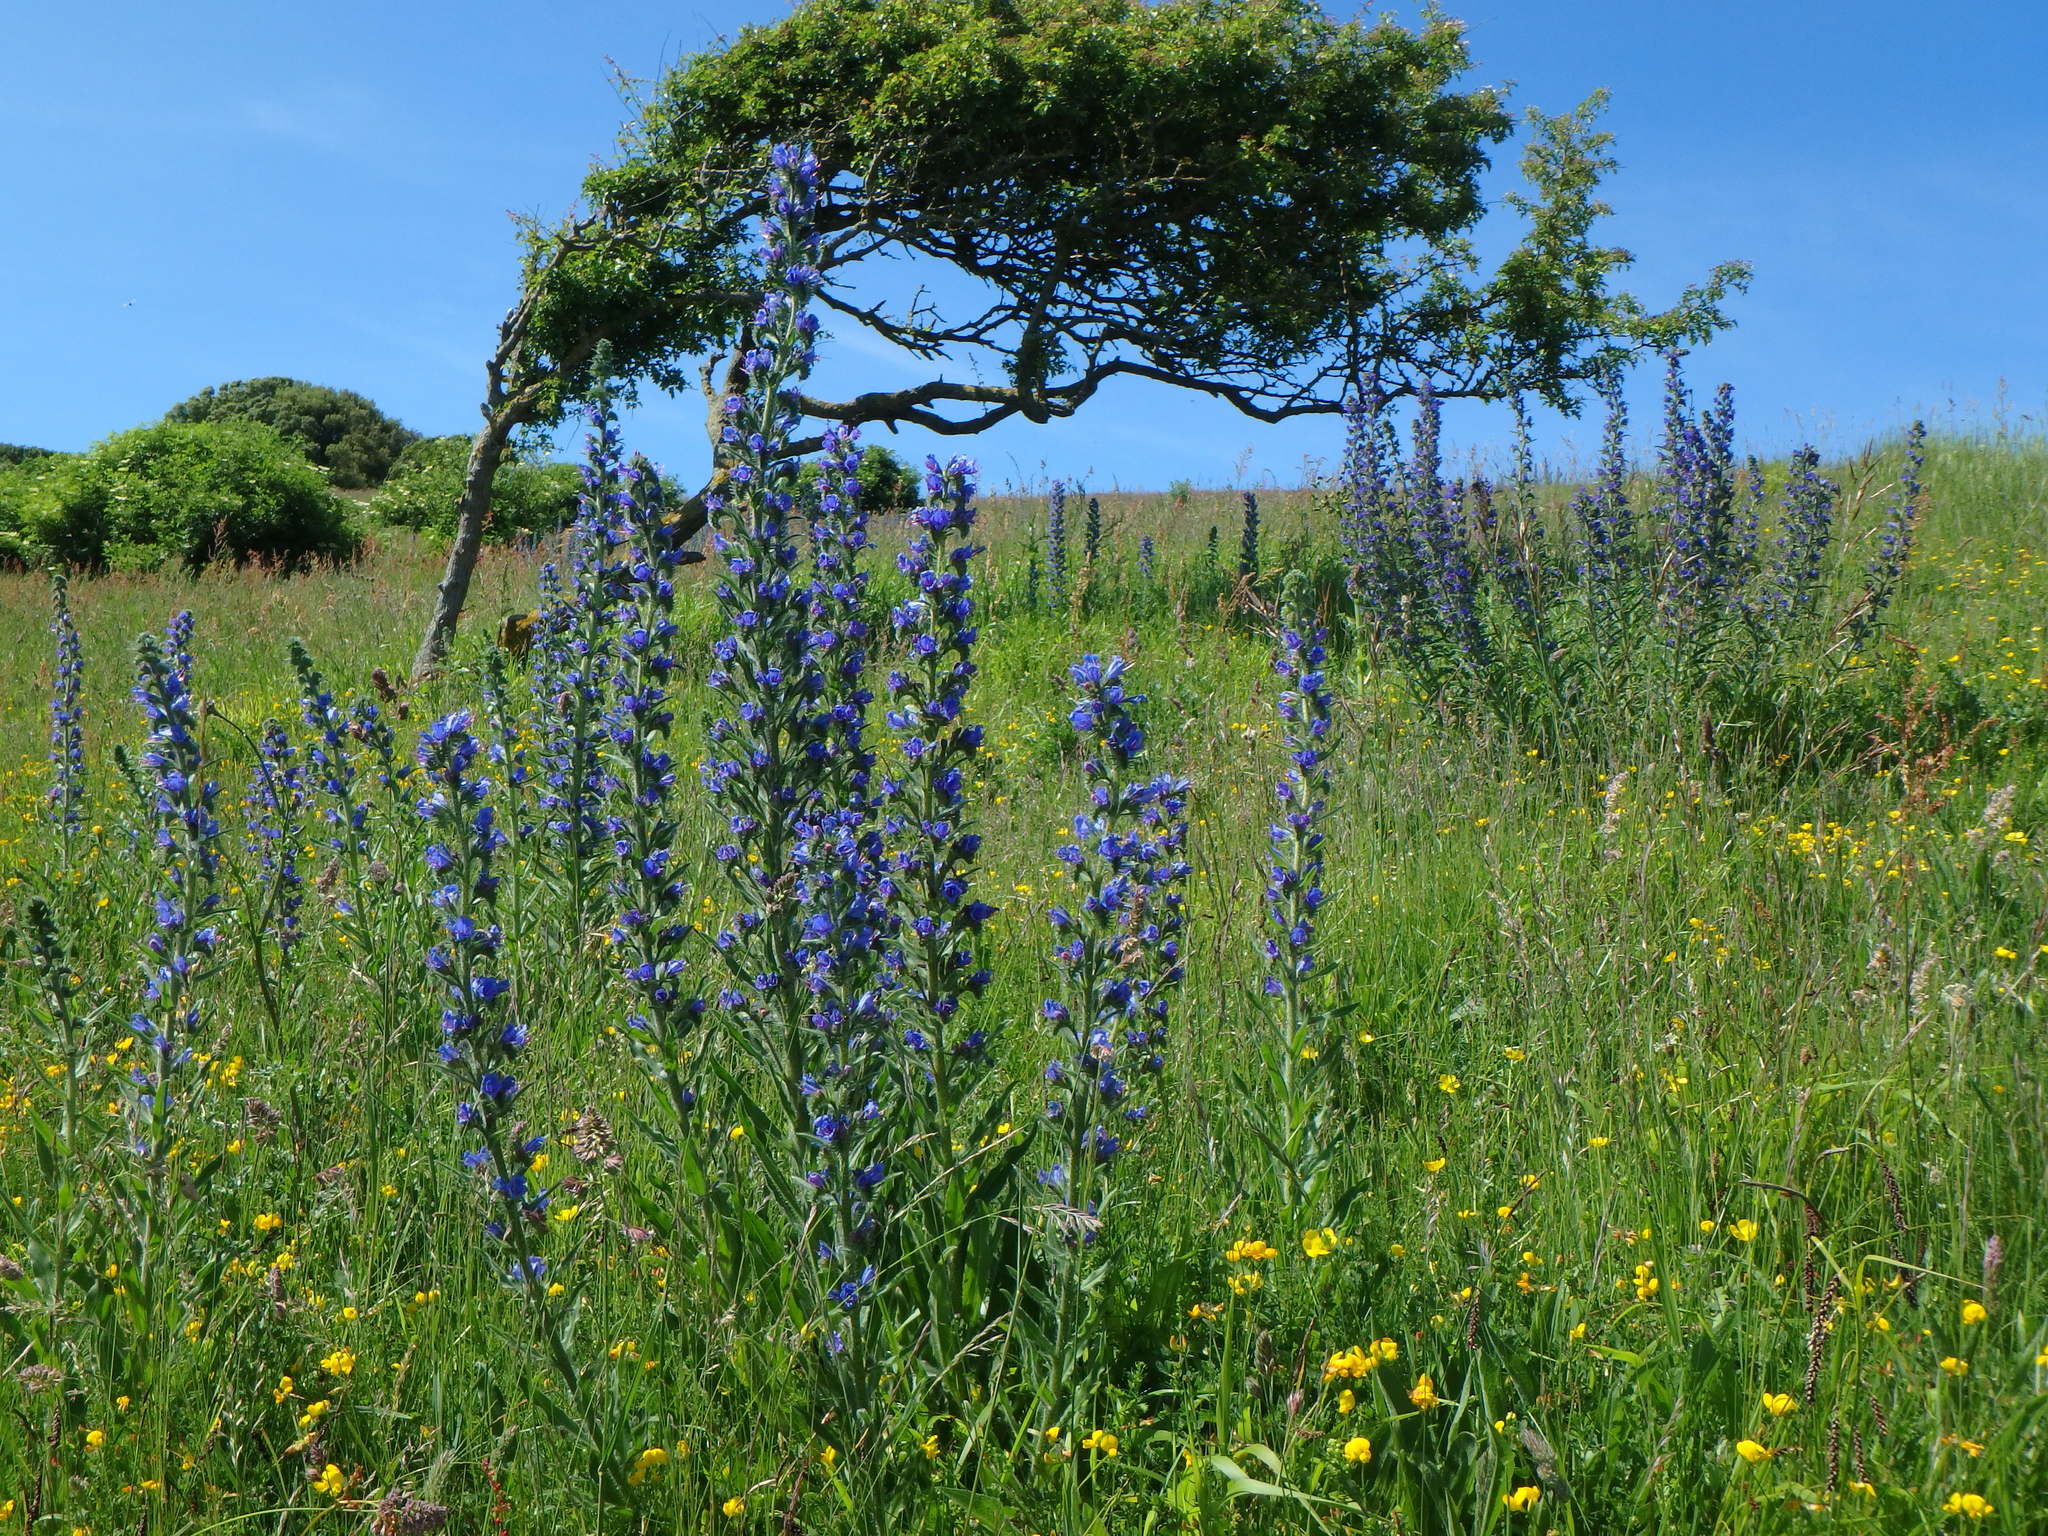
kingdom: Plantae
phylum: Tracheophyta
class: Magnoliopsida
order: Boraginales
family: Boraginaceae
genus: Echium
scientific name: Echium vulgare
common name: Common viper's bugloss
